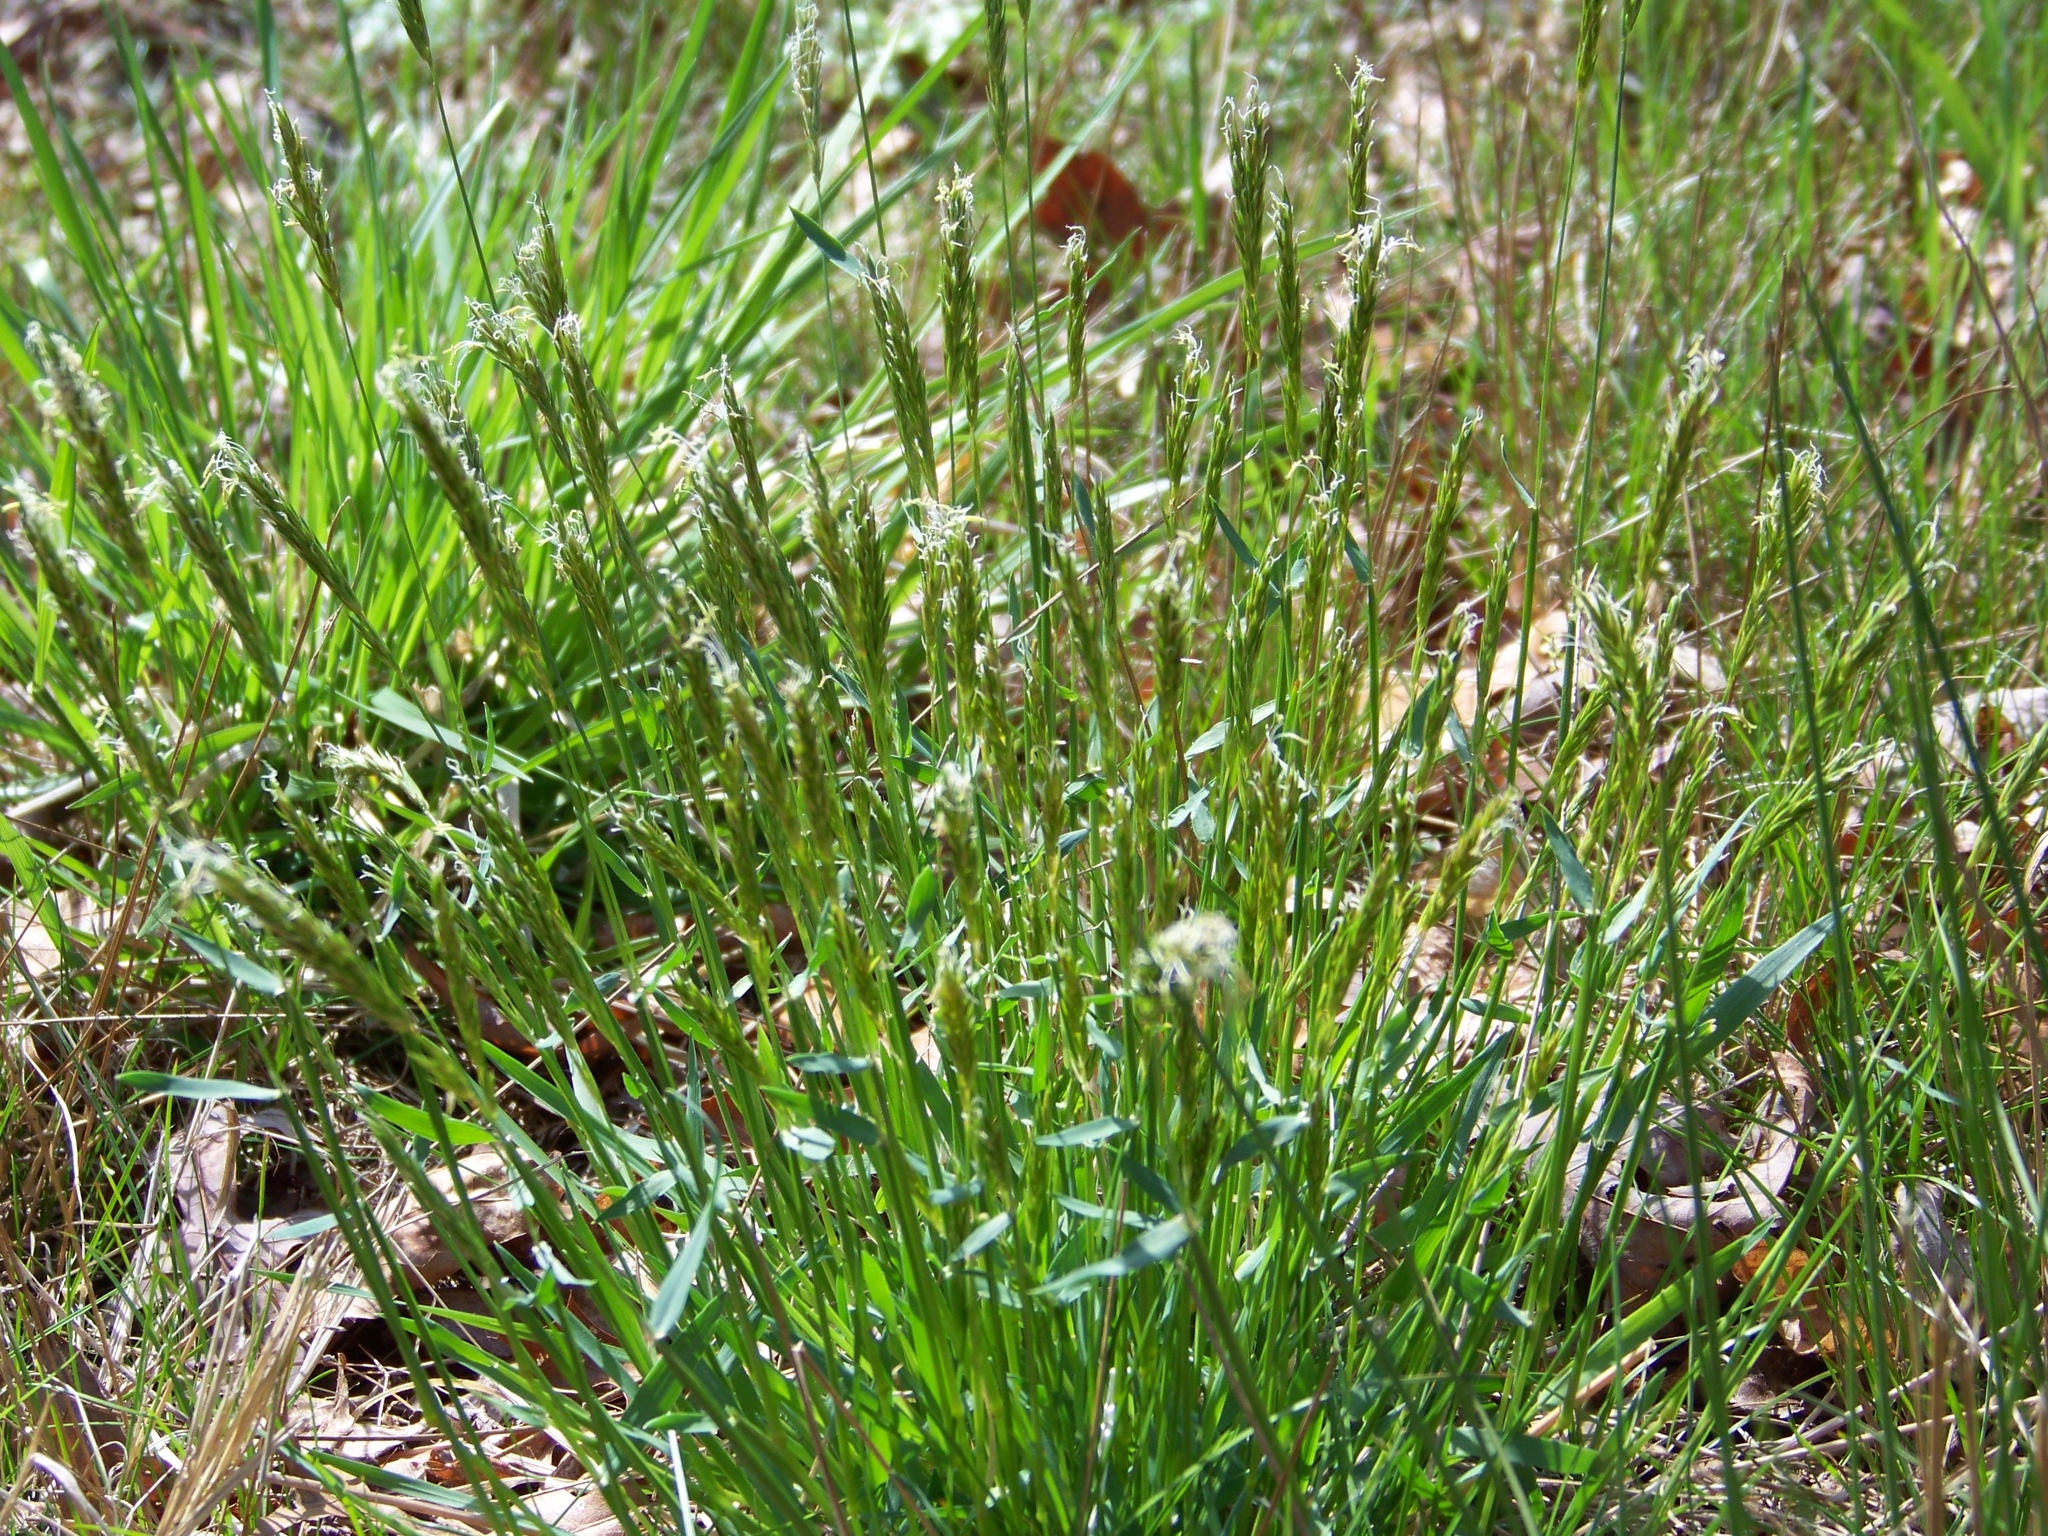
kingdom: Plantae
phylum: Tracheophyta
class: Liliopsida
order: Poales
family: Poaceae
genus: Anthoxanthum
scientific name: Anthoxanthum odoratum
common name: Sweet vernalgrass
